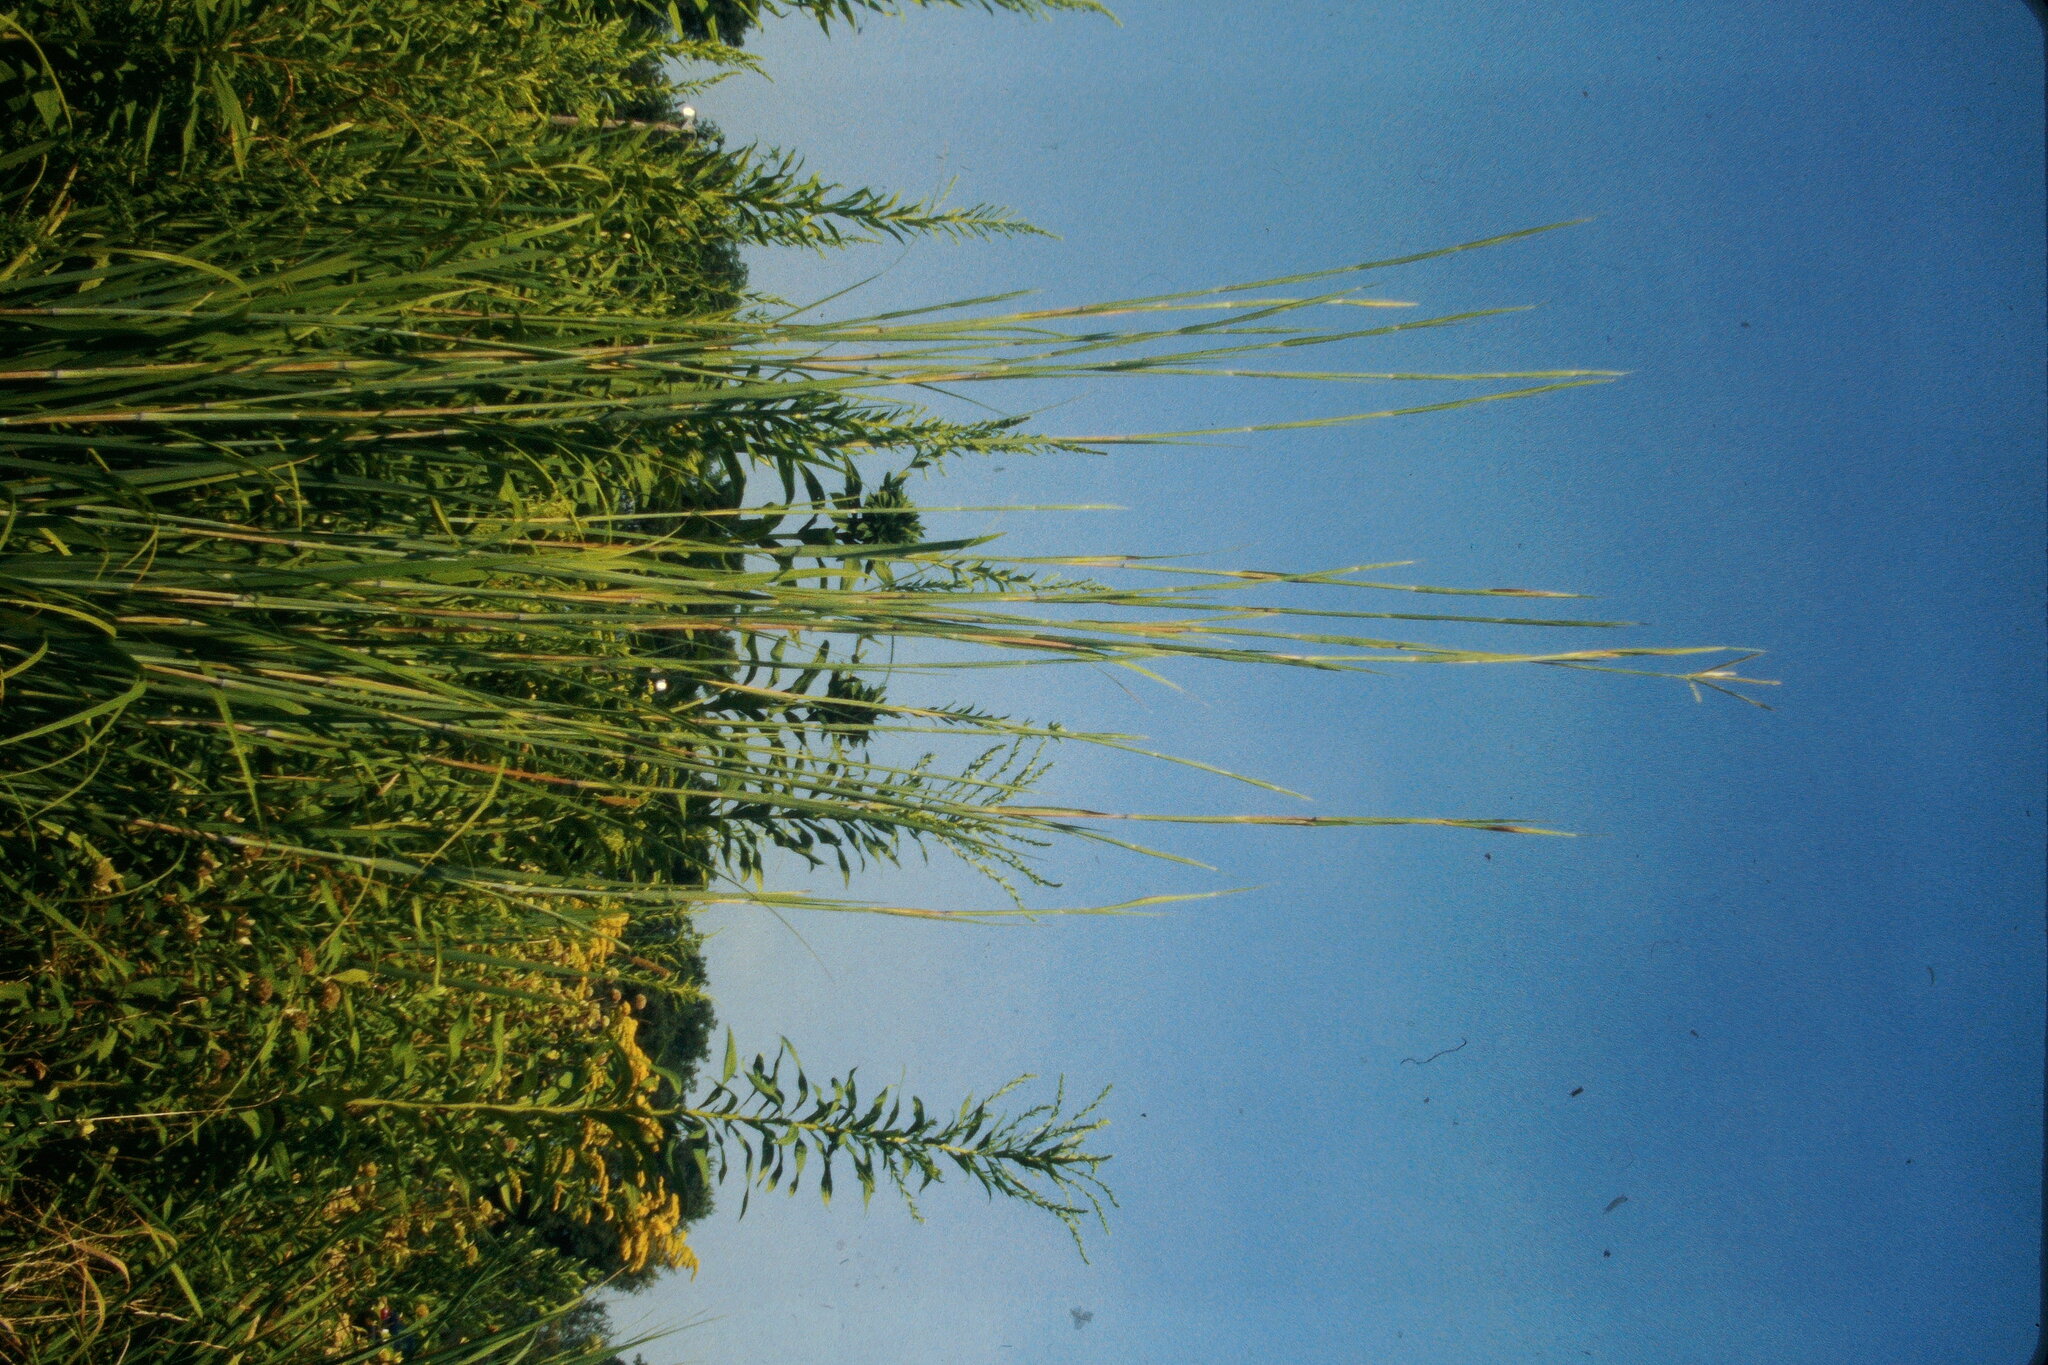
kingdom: Plantae
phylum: Tracheophyta
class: Liliopsida
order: Poales
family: Poaceae
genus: Andropogon
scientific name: Andropogon gerardi
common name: Big bluestem
